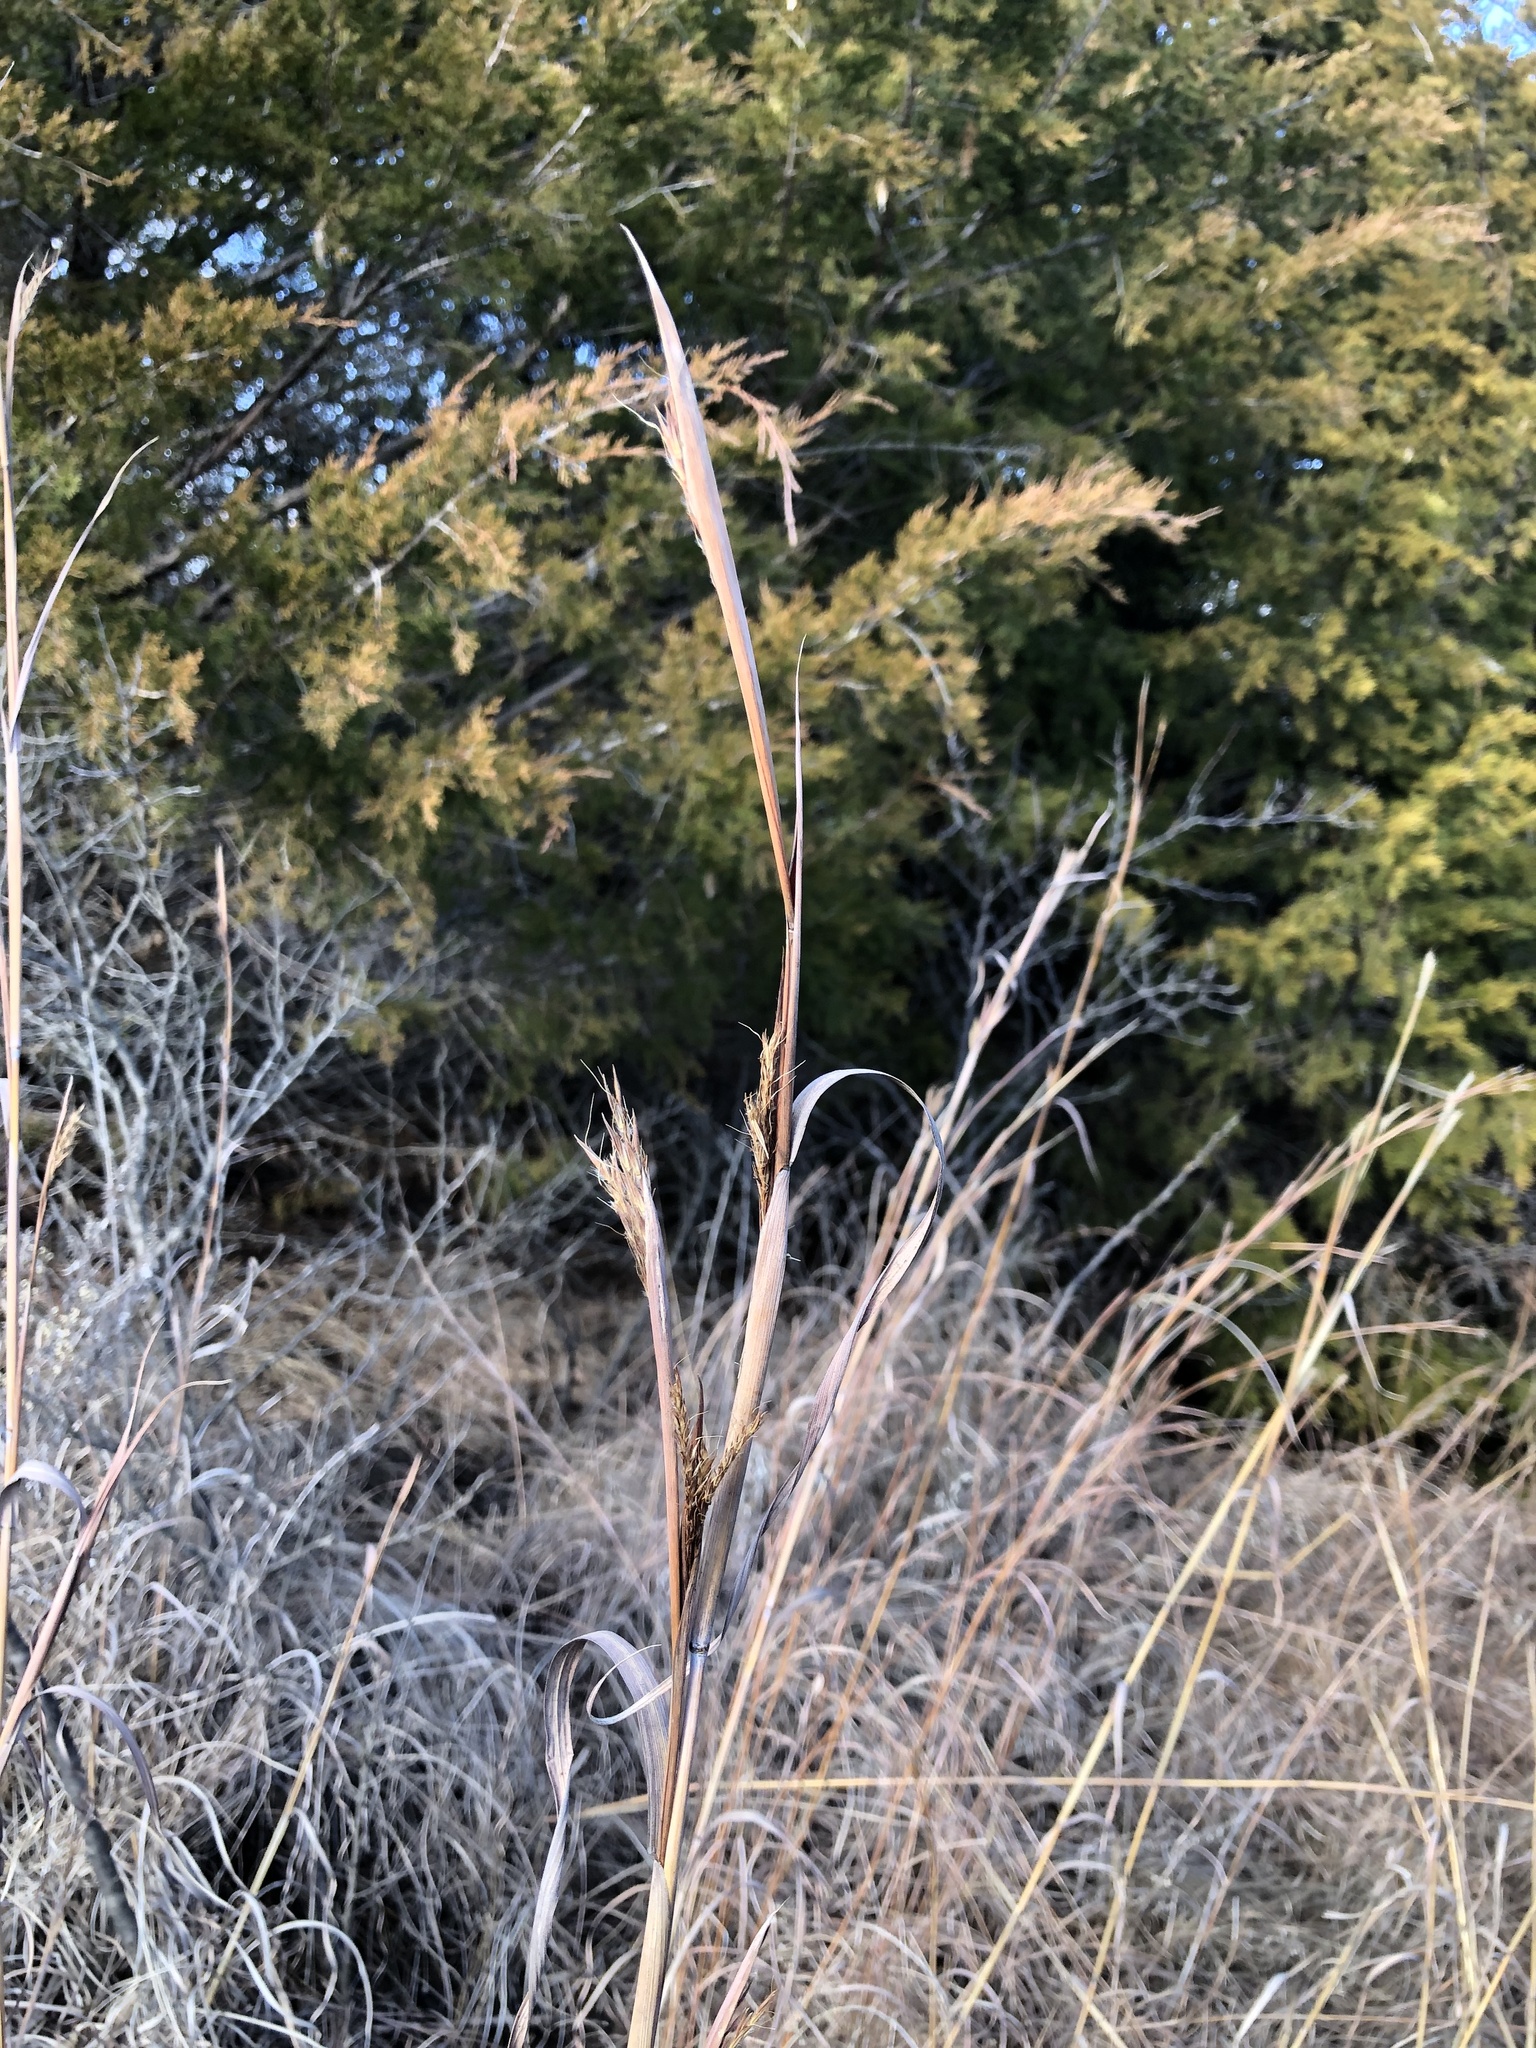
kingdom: Plantae
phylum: Tracheophyta
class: Liliopsida
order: Poales
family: Poaceae
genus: Andropogon
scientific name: Andropogon gerardi
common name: Big bluestem
